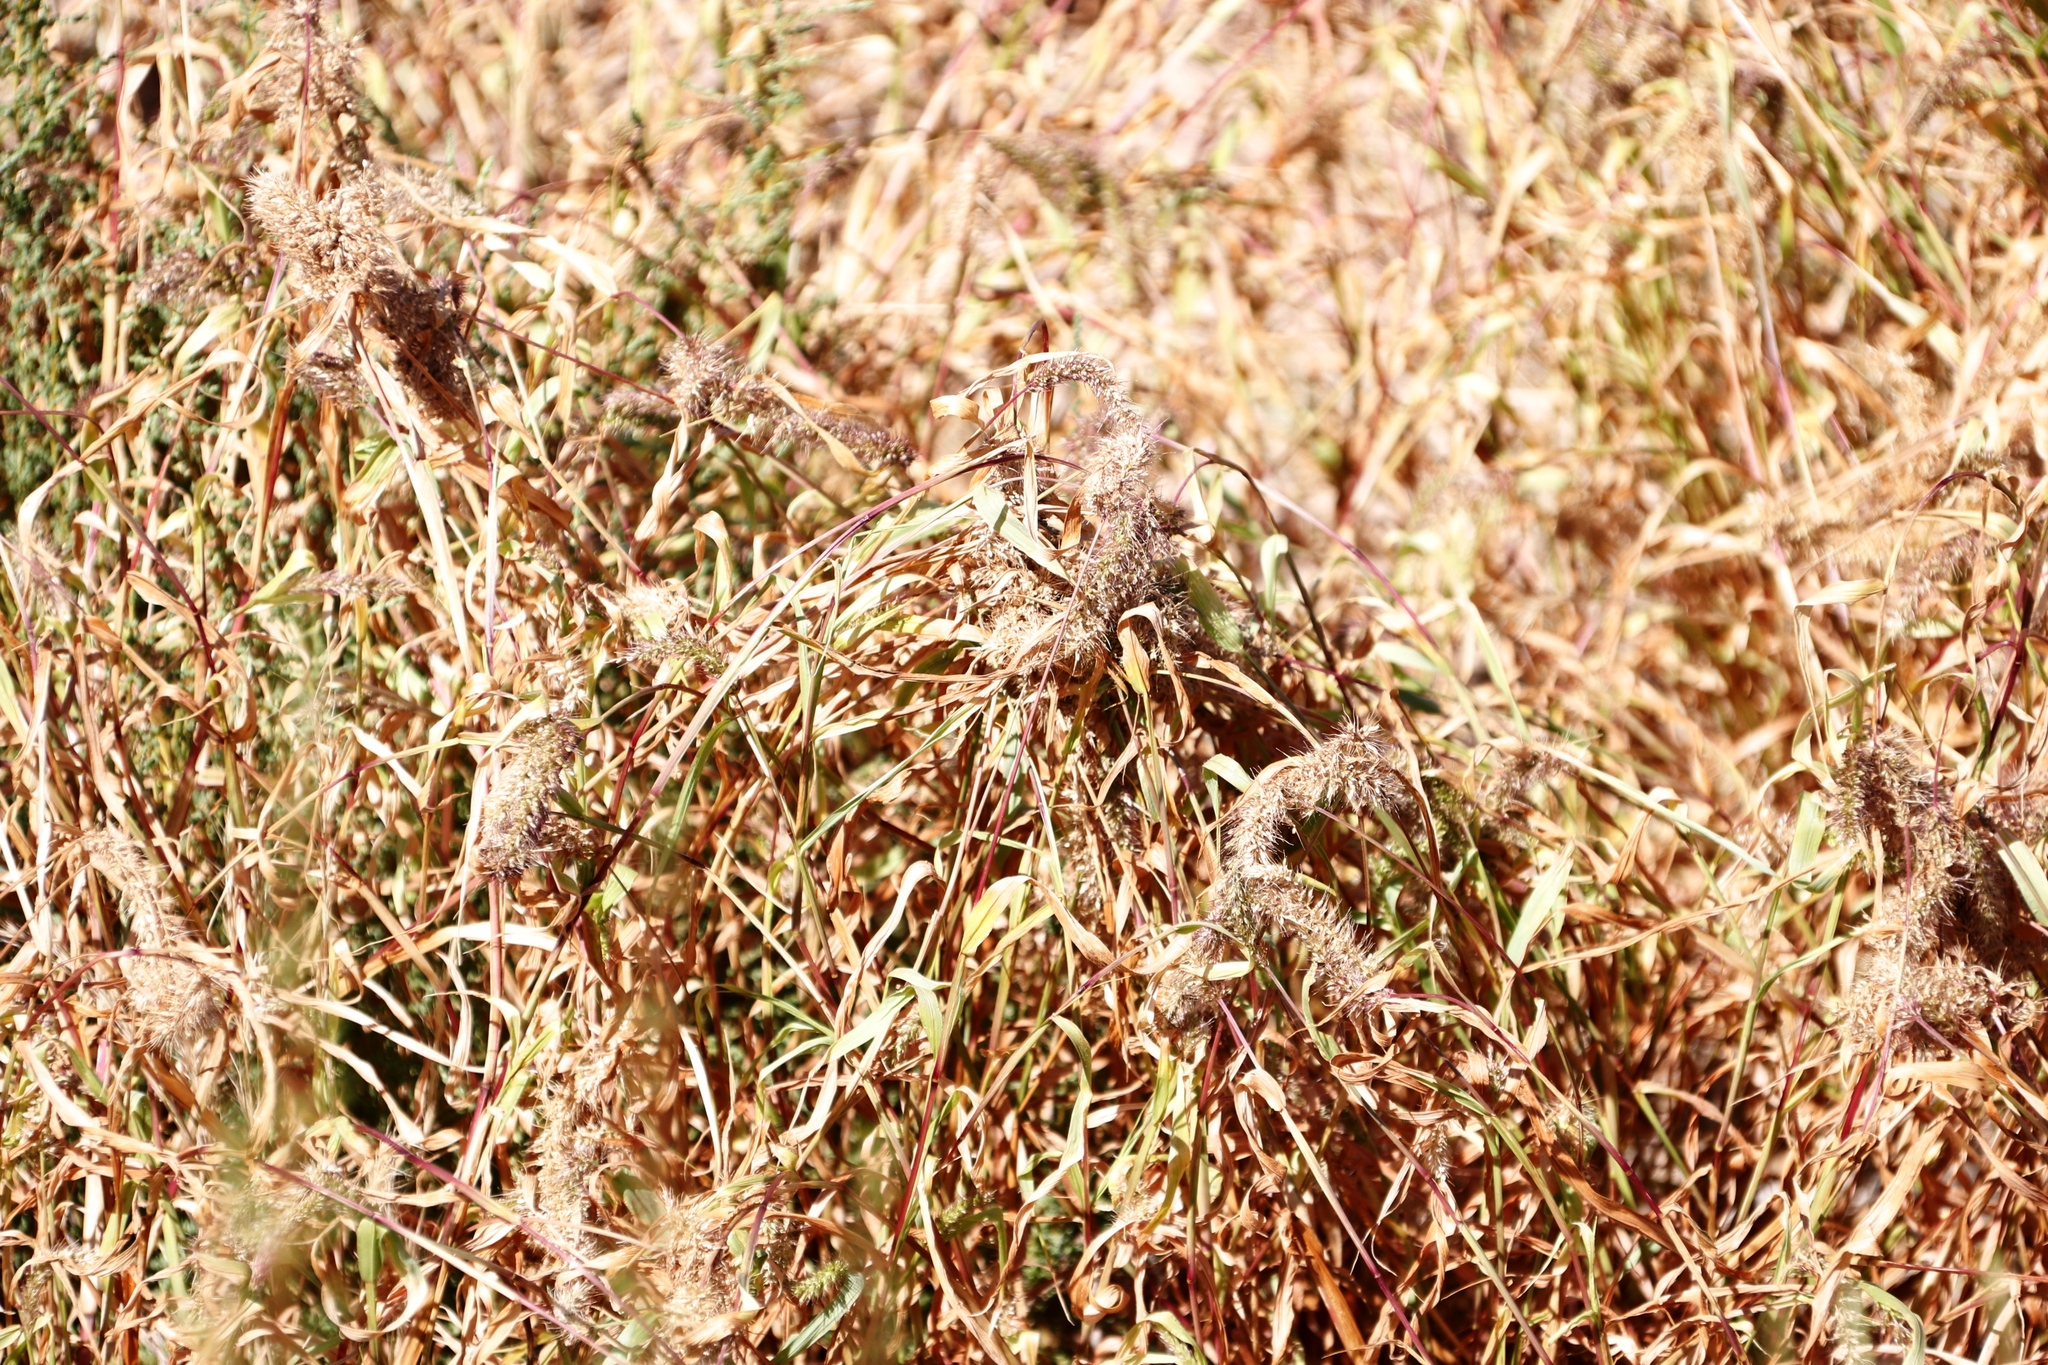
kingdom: Plantae
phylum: Tracheophyta
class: Liliopsida
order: Poales
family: Poaceae
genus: Setaria
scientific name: Setaria verticillata
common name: Hooked bristlegrass
